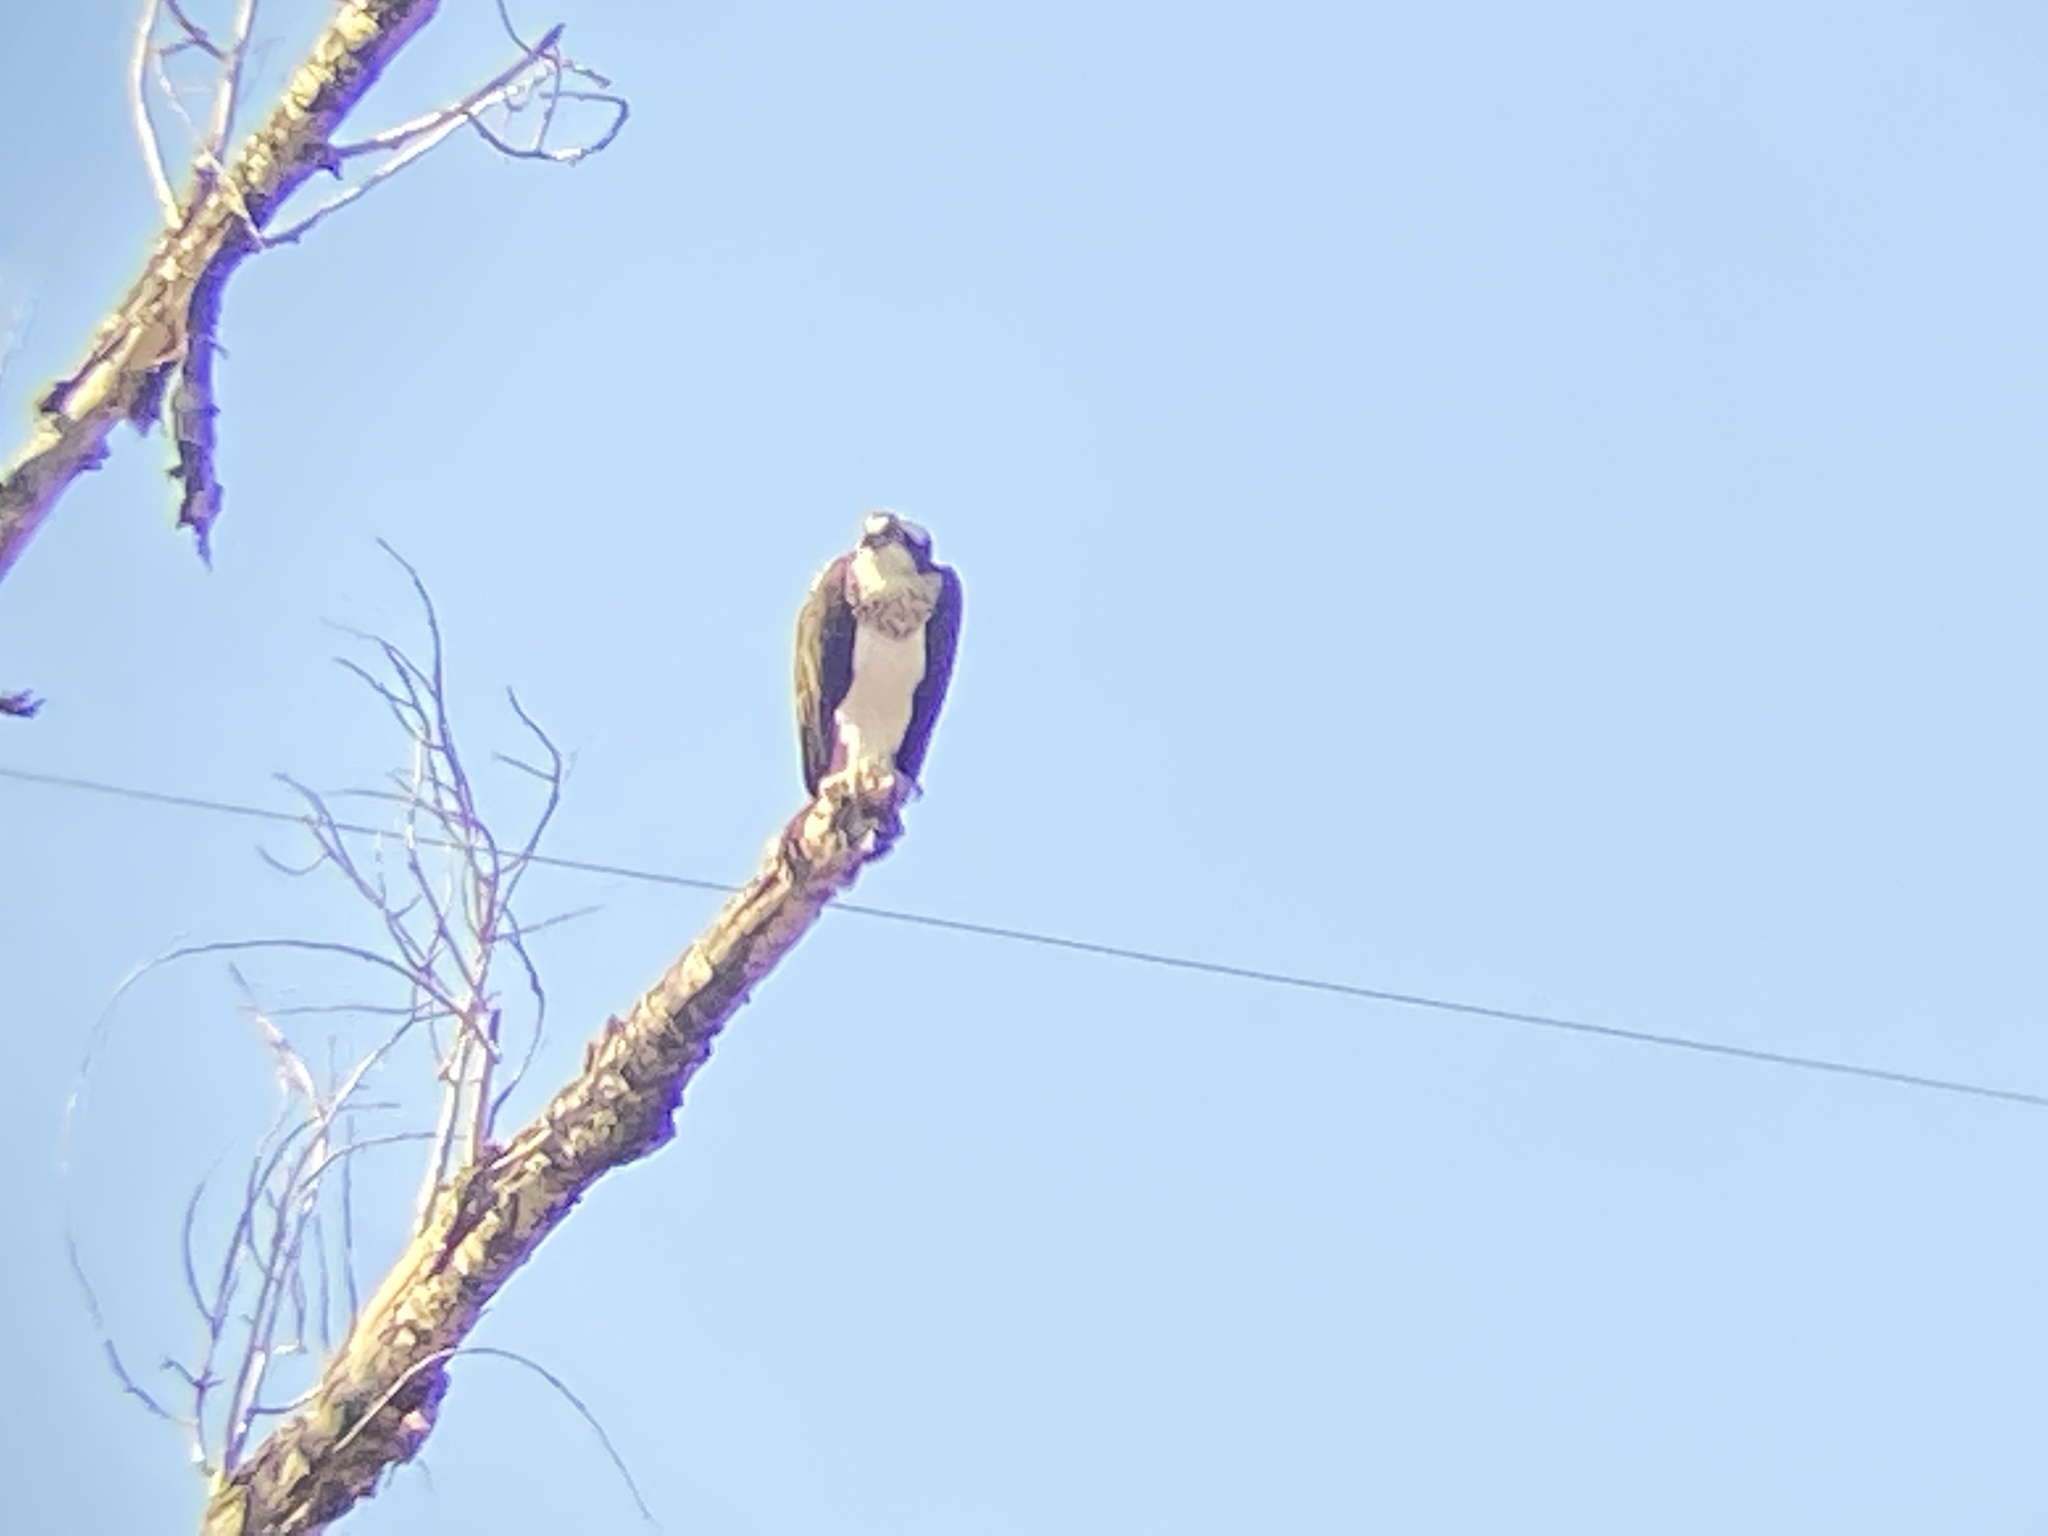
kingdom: Animalia
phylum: Chordata
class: Aves
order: Accipitriformes
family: Pandionidae
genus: Pandion
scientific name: Pandion haliaetus
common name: Osprey
